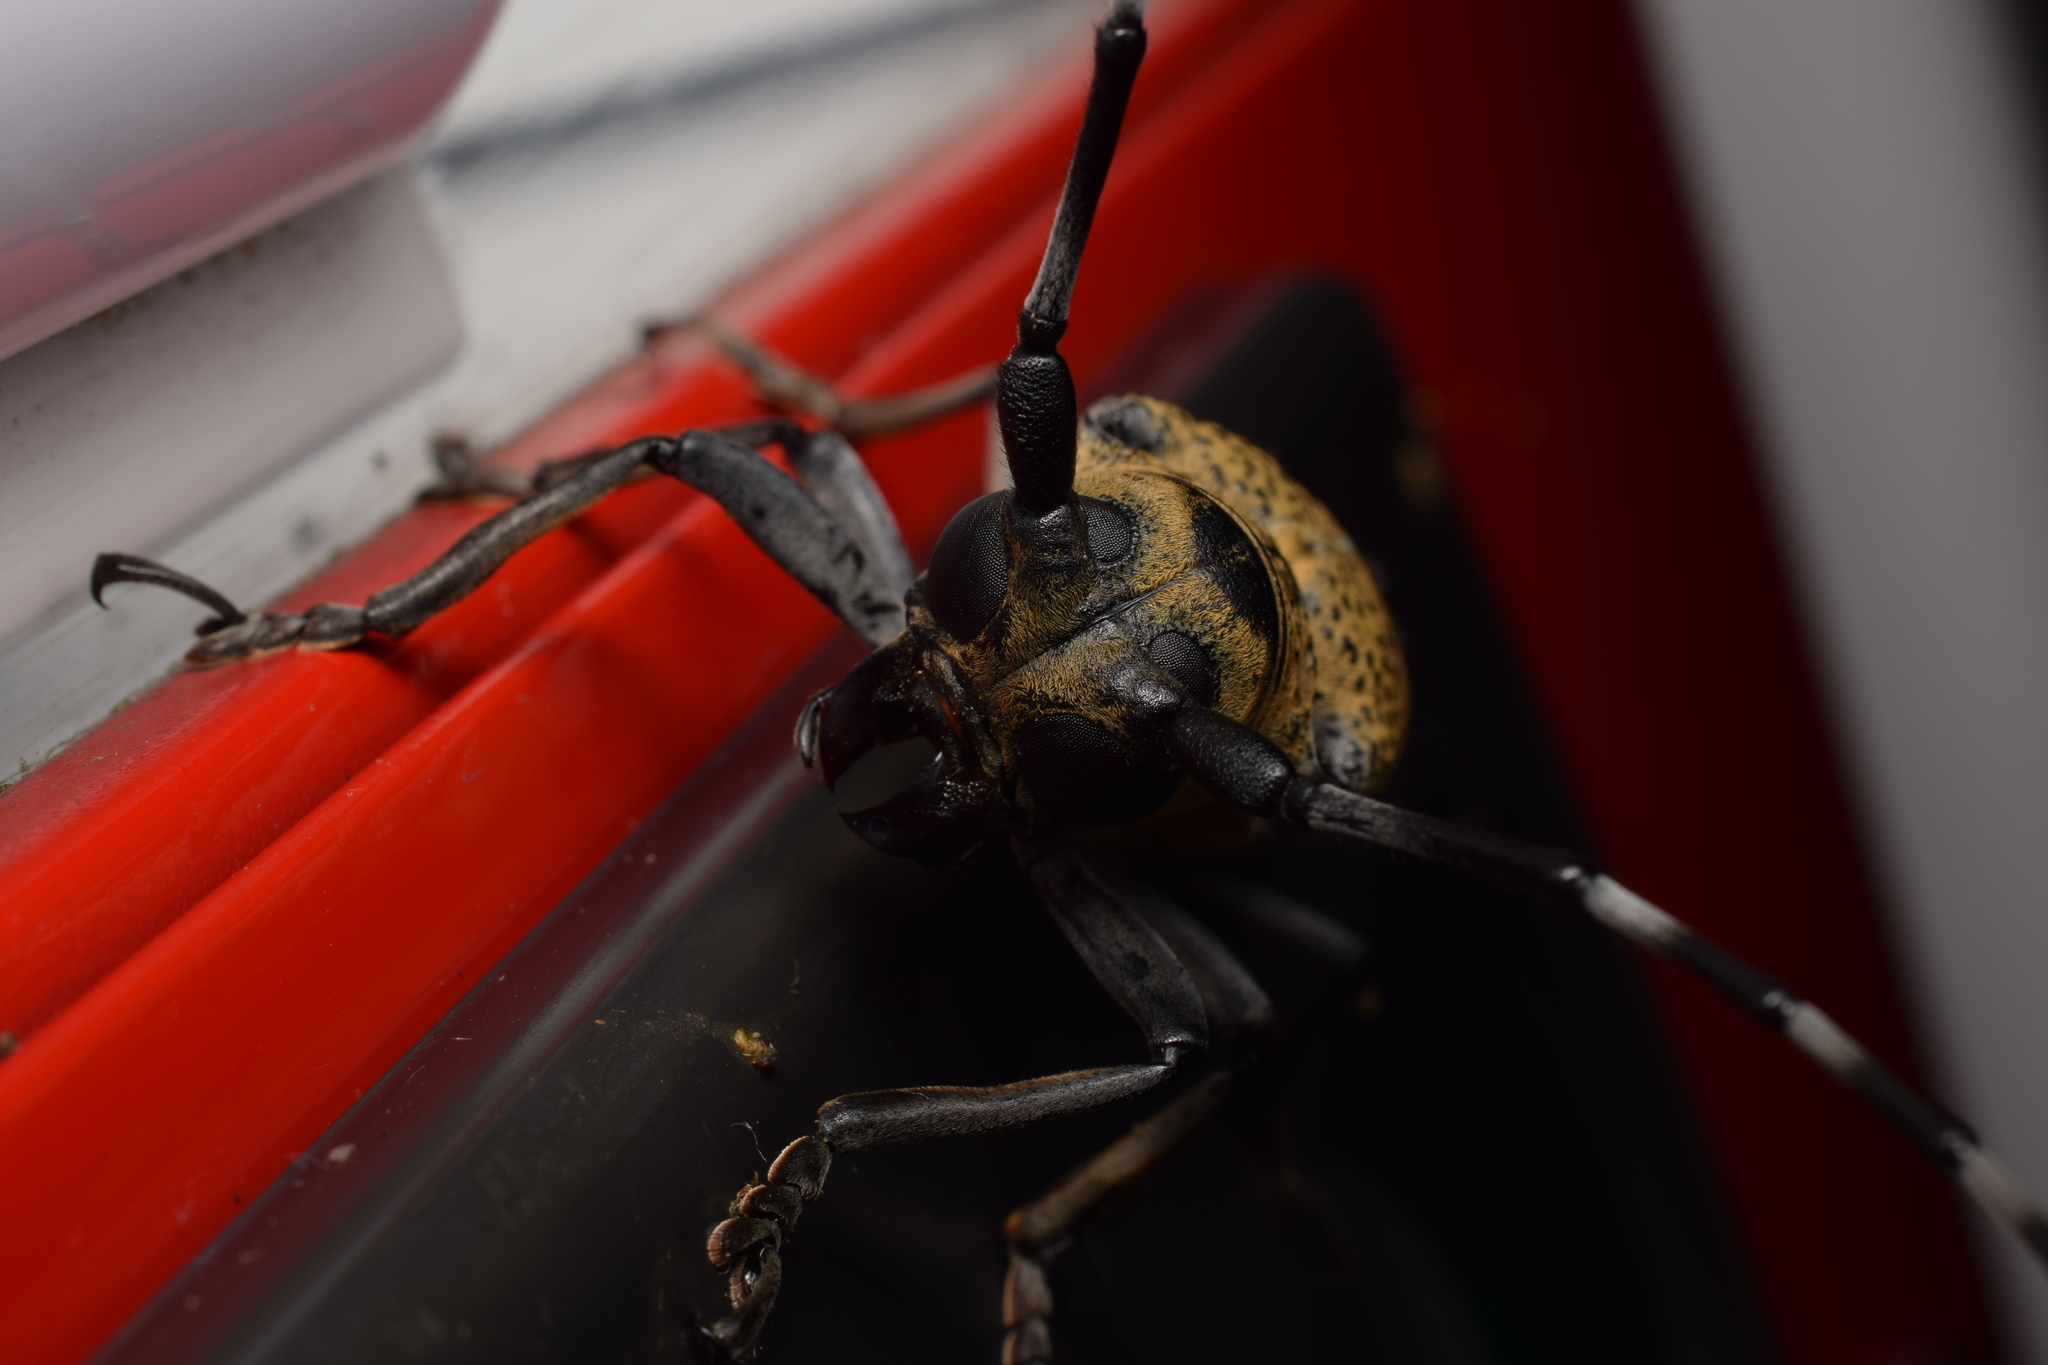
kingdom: Animalia
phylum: Arthropoda
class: Insecta
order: Coleoptera
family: Cerambycidae
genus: Apriona
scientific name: Apriona rugicollis
